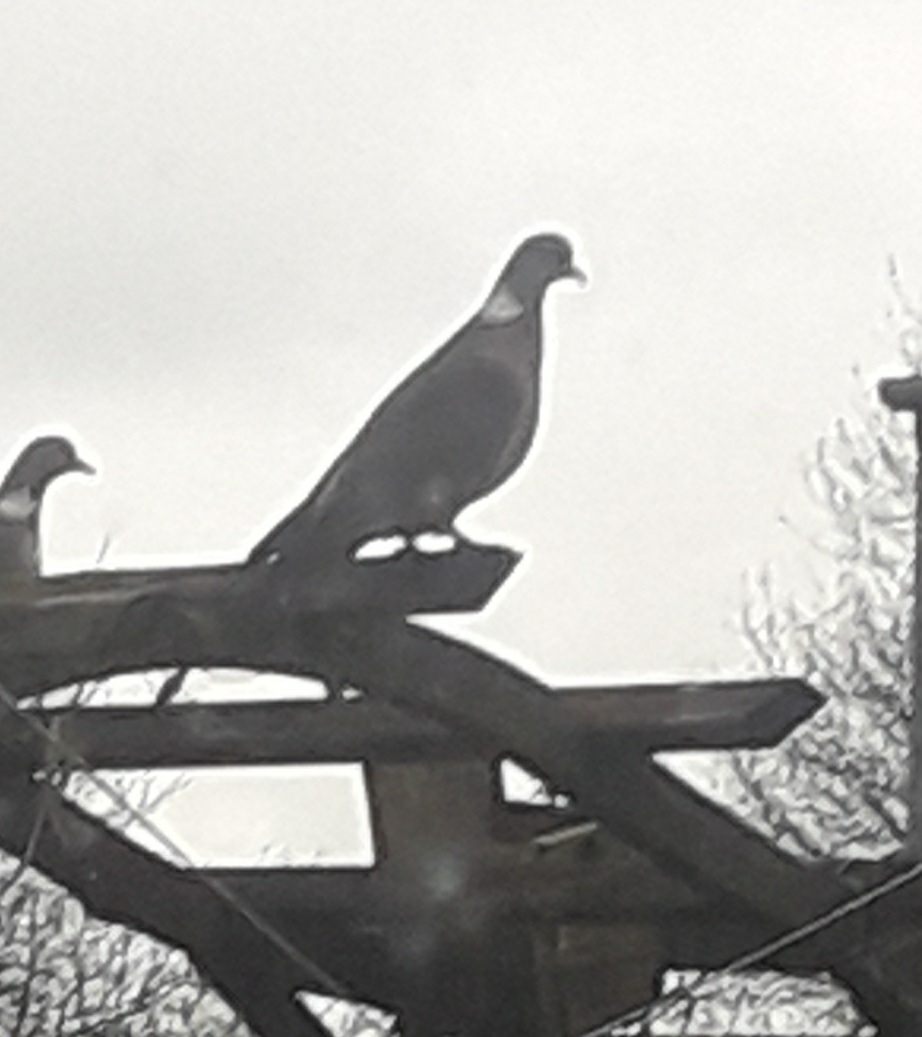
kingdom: Animalia
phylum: Chordata
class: Aves
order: Columbiformes
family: Columbidae
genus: Columba
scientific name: Columba palumbus
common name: Common wood pigeon
